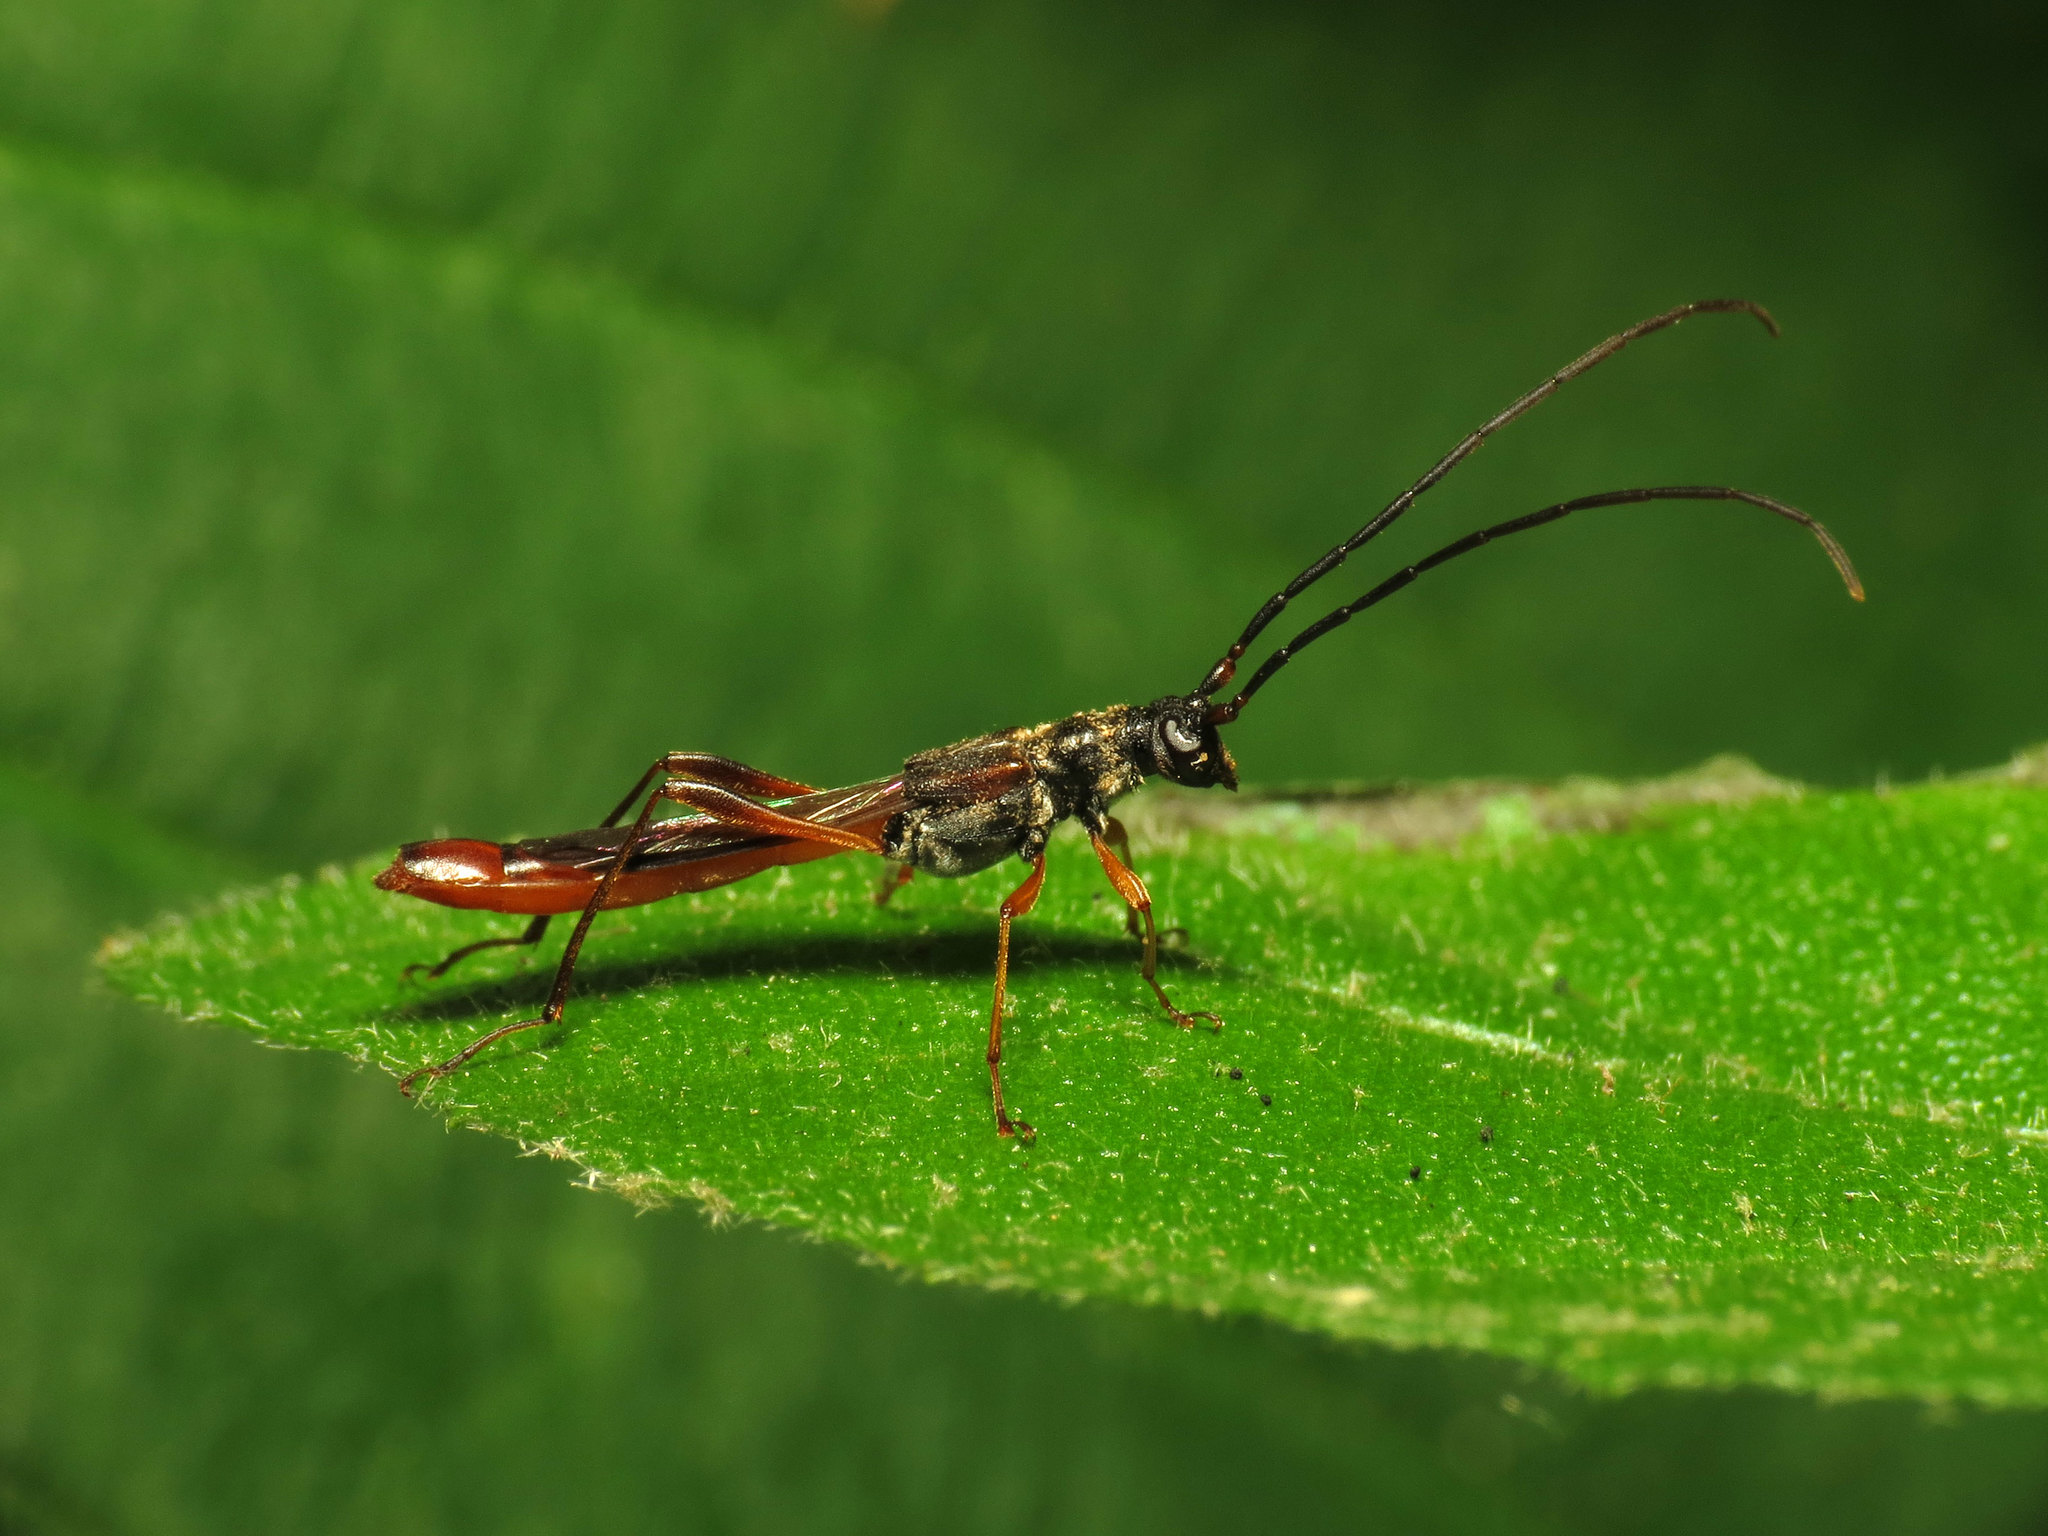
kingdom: Animalia
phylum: Arthropoda
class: Insecta
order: Coleoptera
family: Cerambycidae
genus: Necydalis
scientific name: Necydalis mellita
